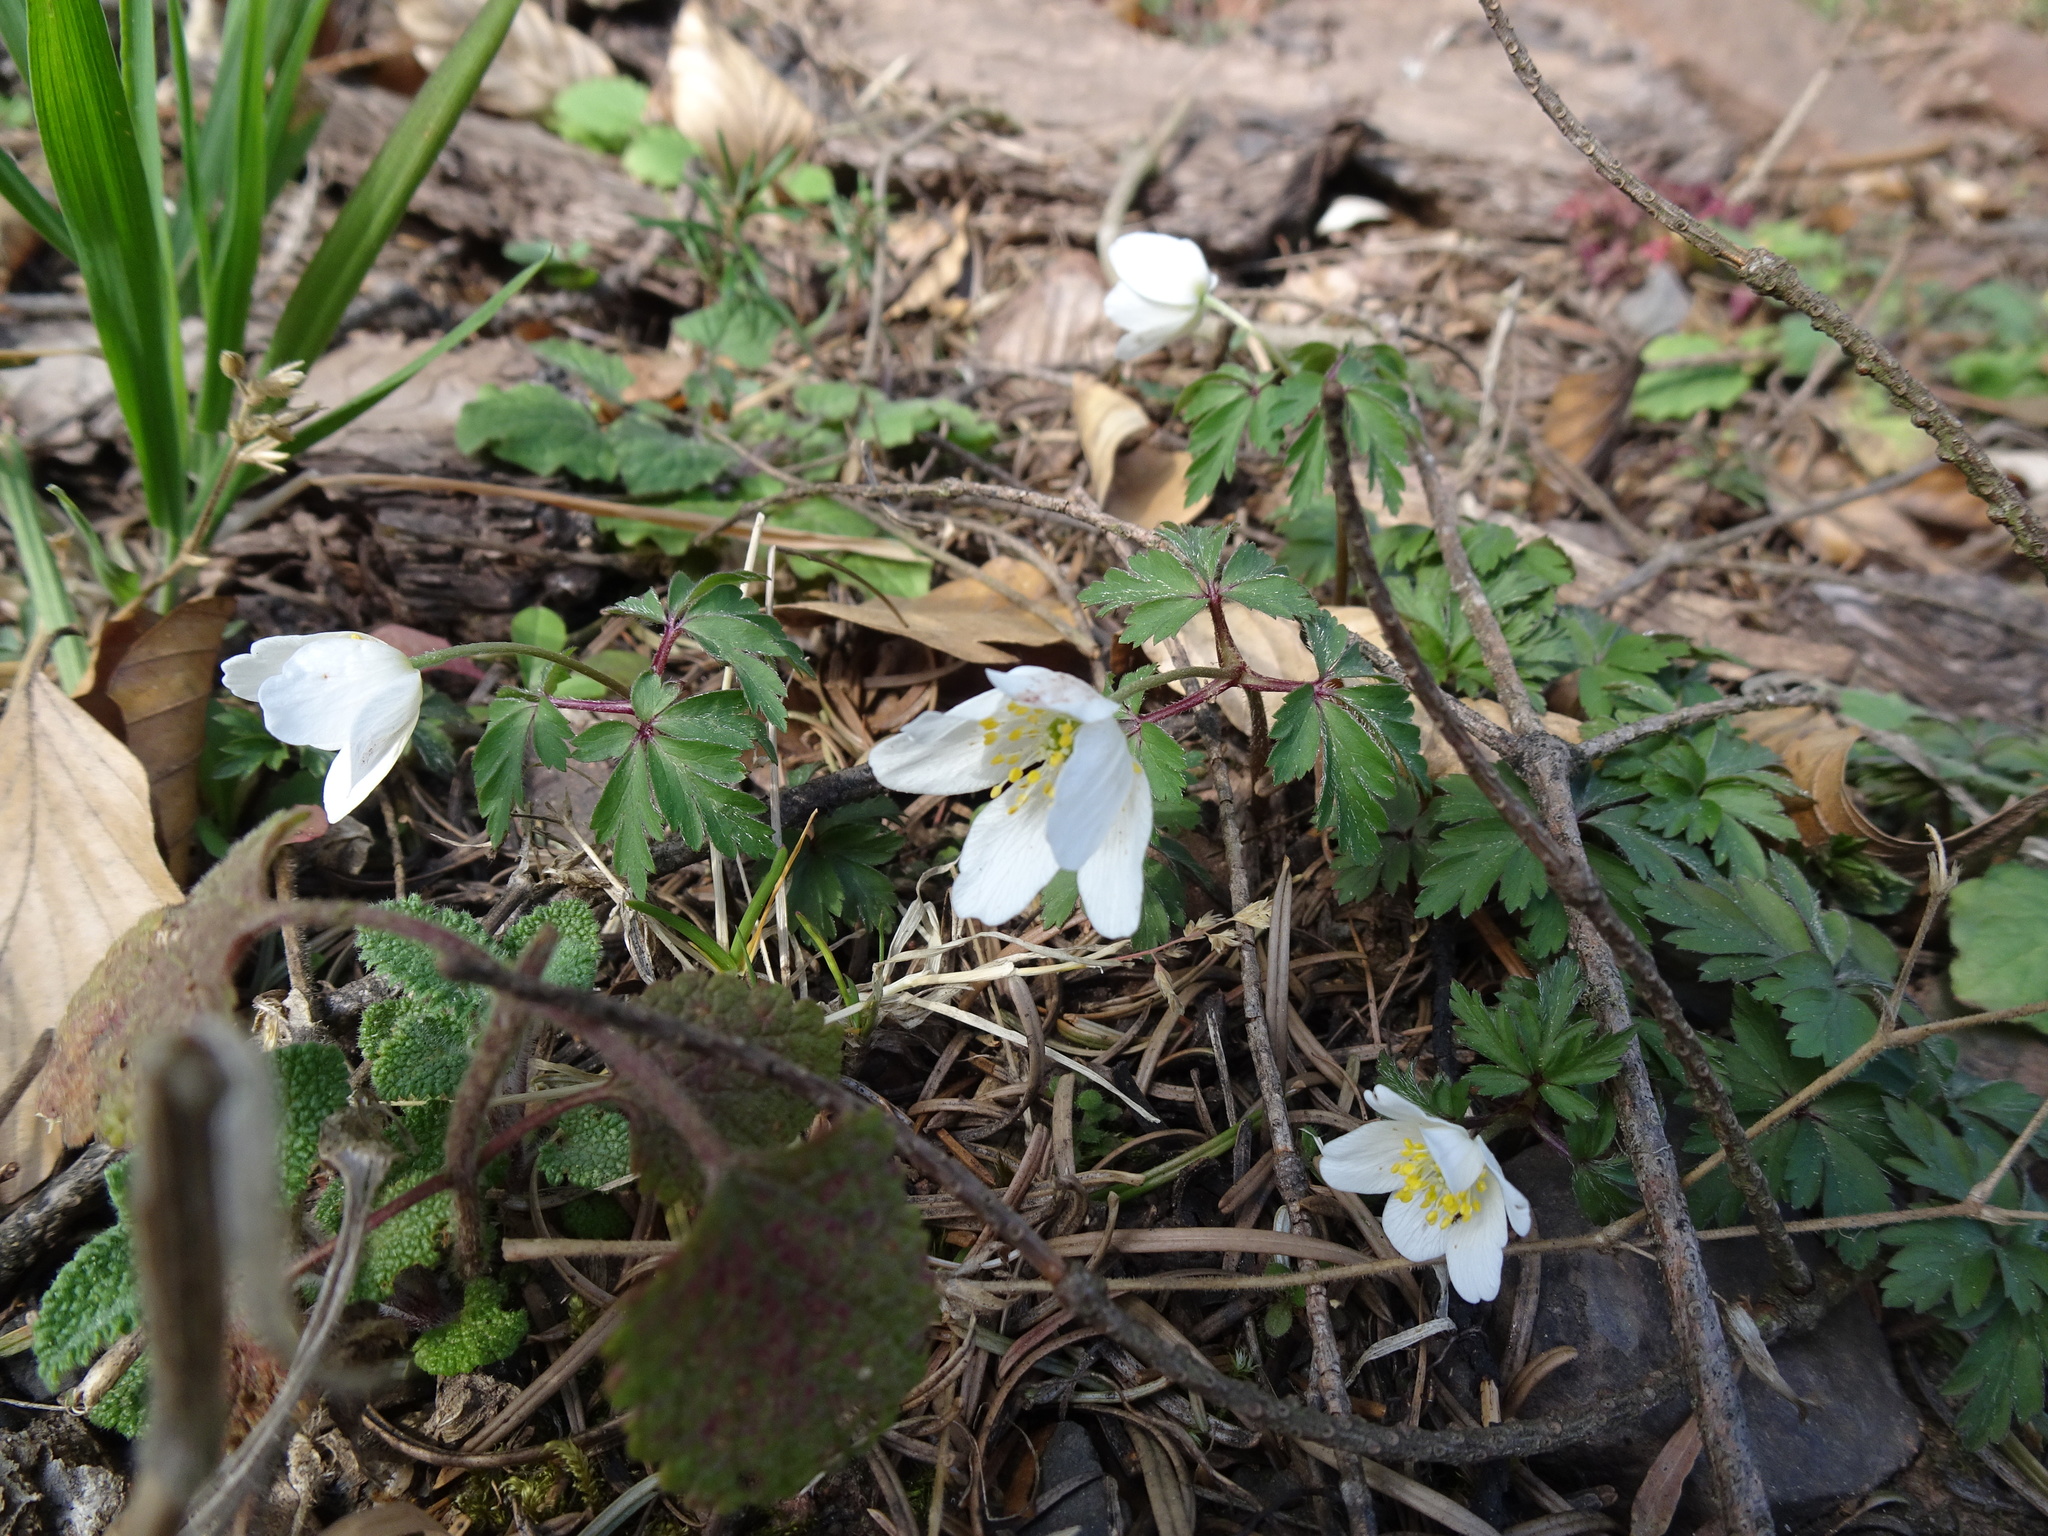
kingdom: Plantae
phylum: Tracheophyta
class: Magnoliopsida
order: Ranunculales
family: Ranunculaceae
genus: Anemone
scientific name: Anemone nemorosa
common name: Wood anemone
